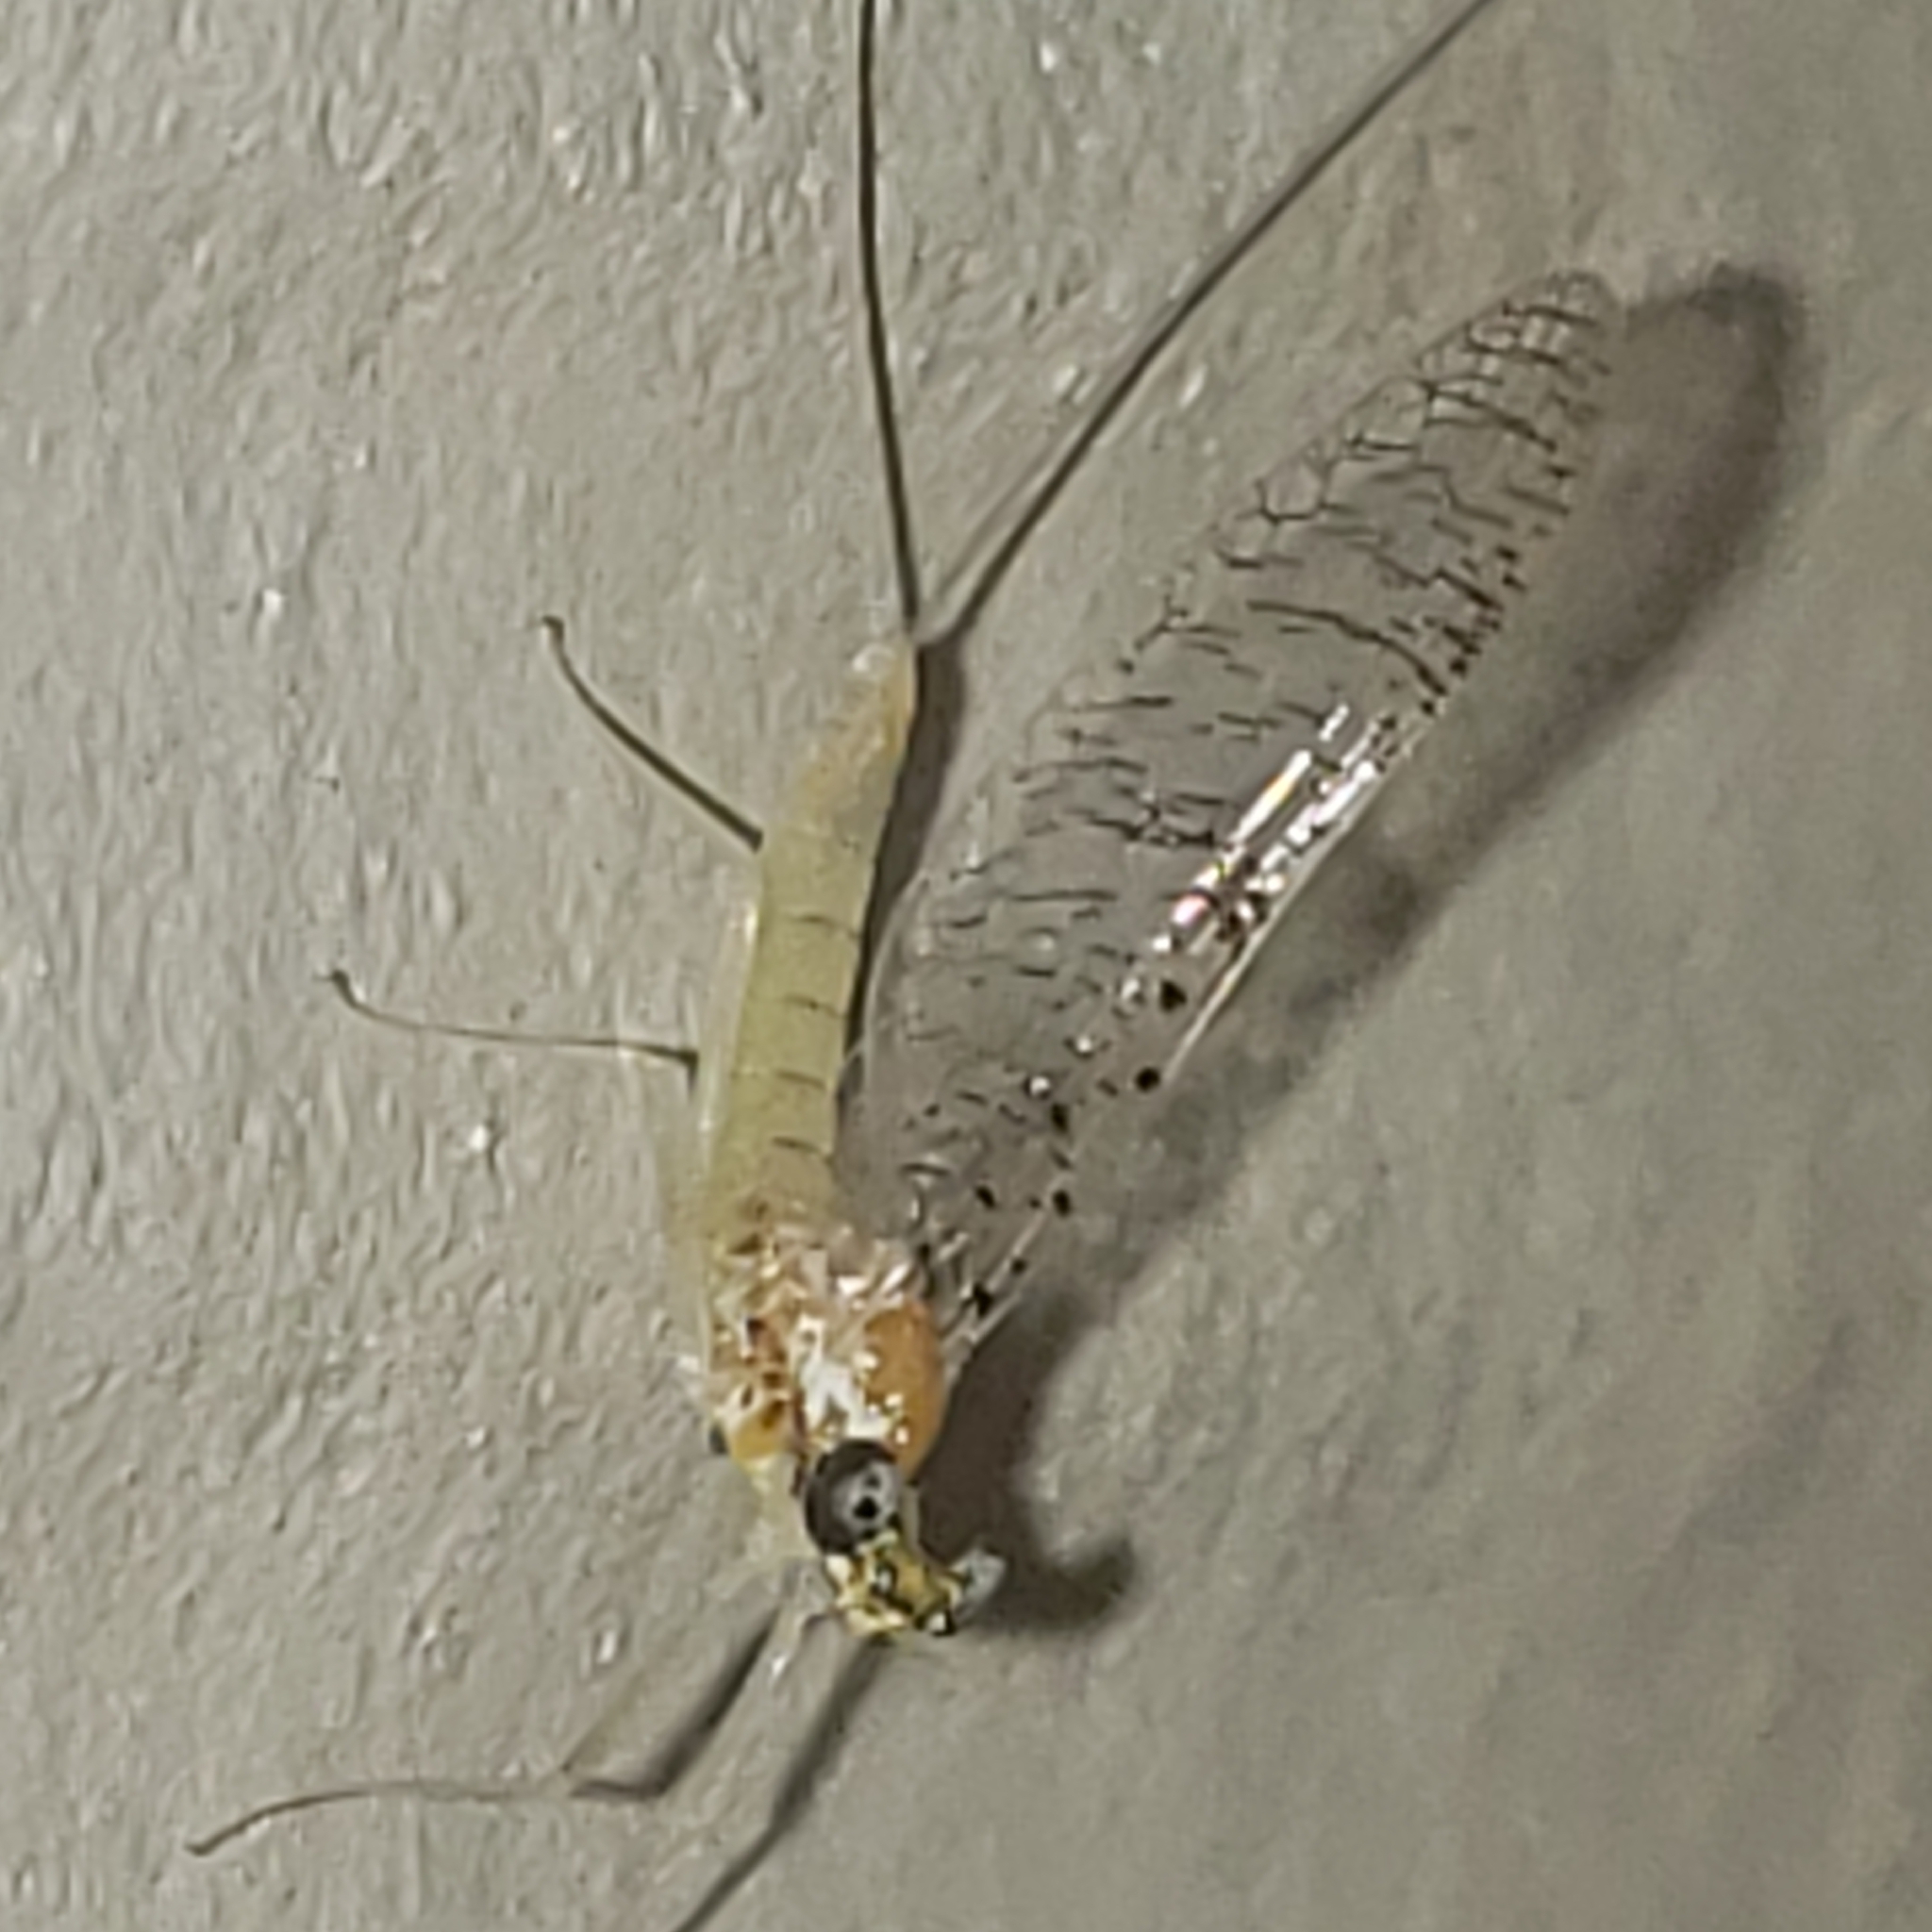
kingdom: Animalia
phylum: Arthropoda
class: Insecta
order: Ephemeroptera
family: Heptageniidae
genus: Leucrocuta
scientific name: Leucrocuta maculipennis
